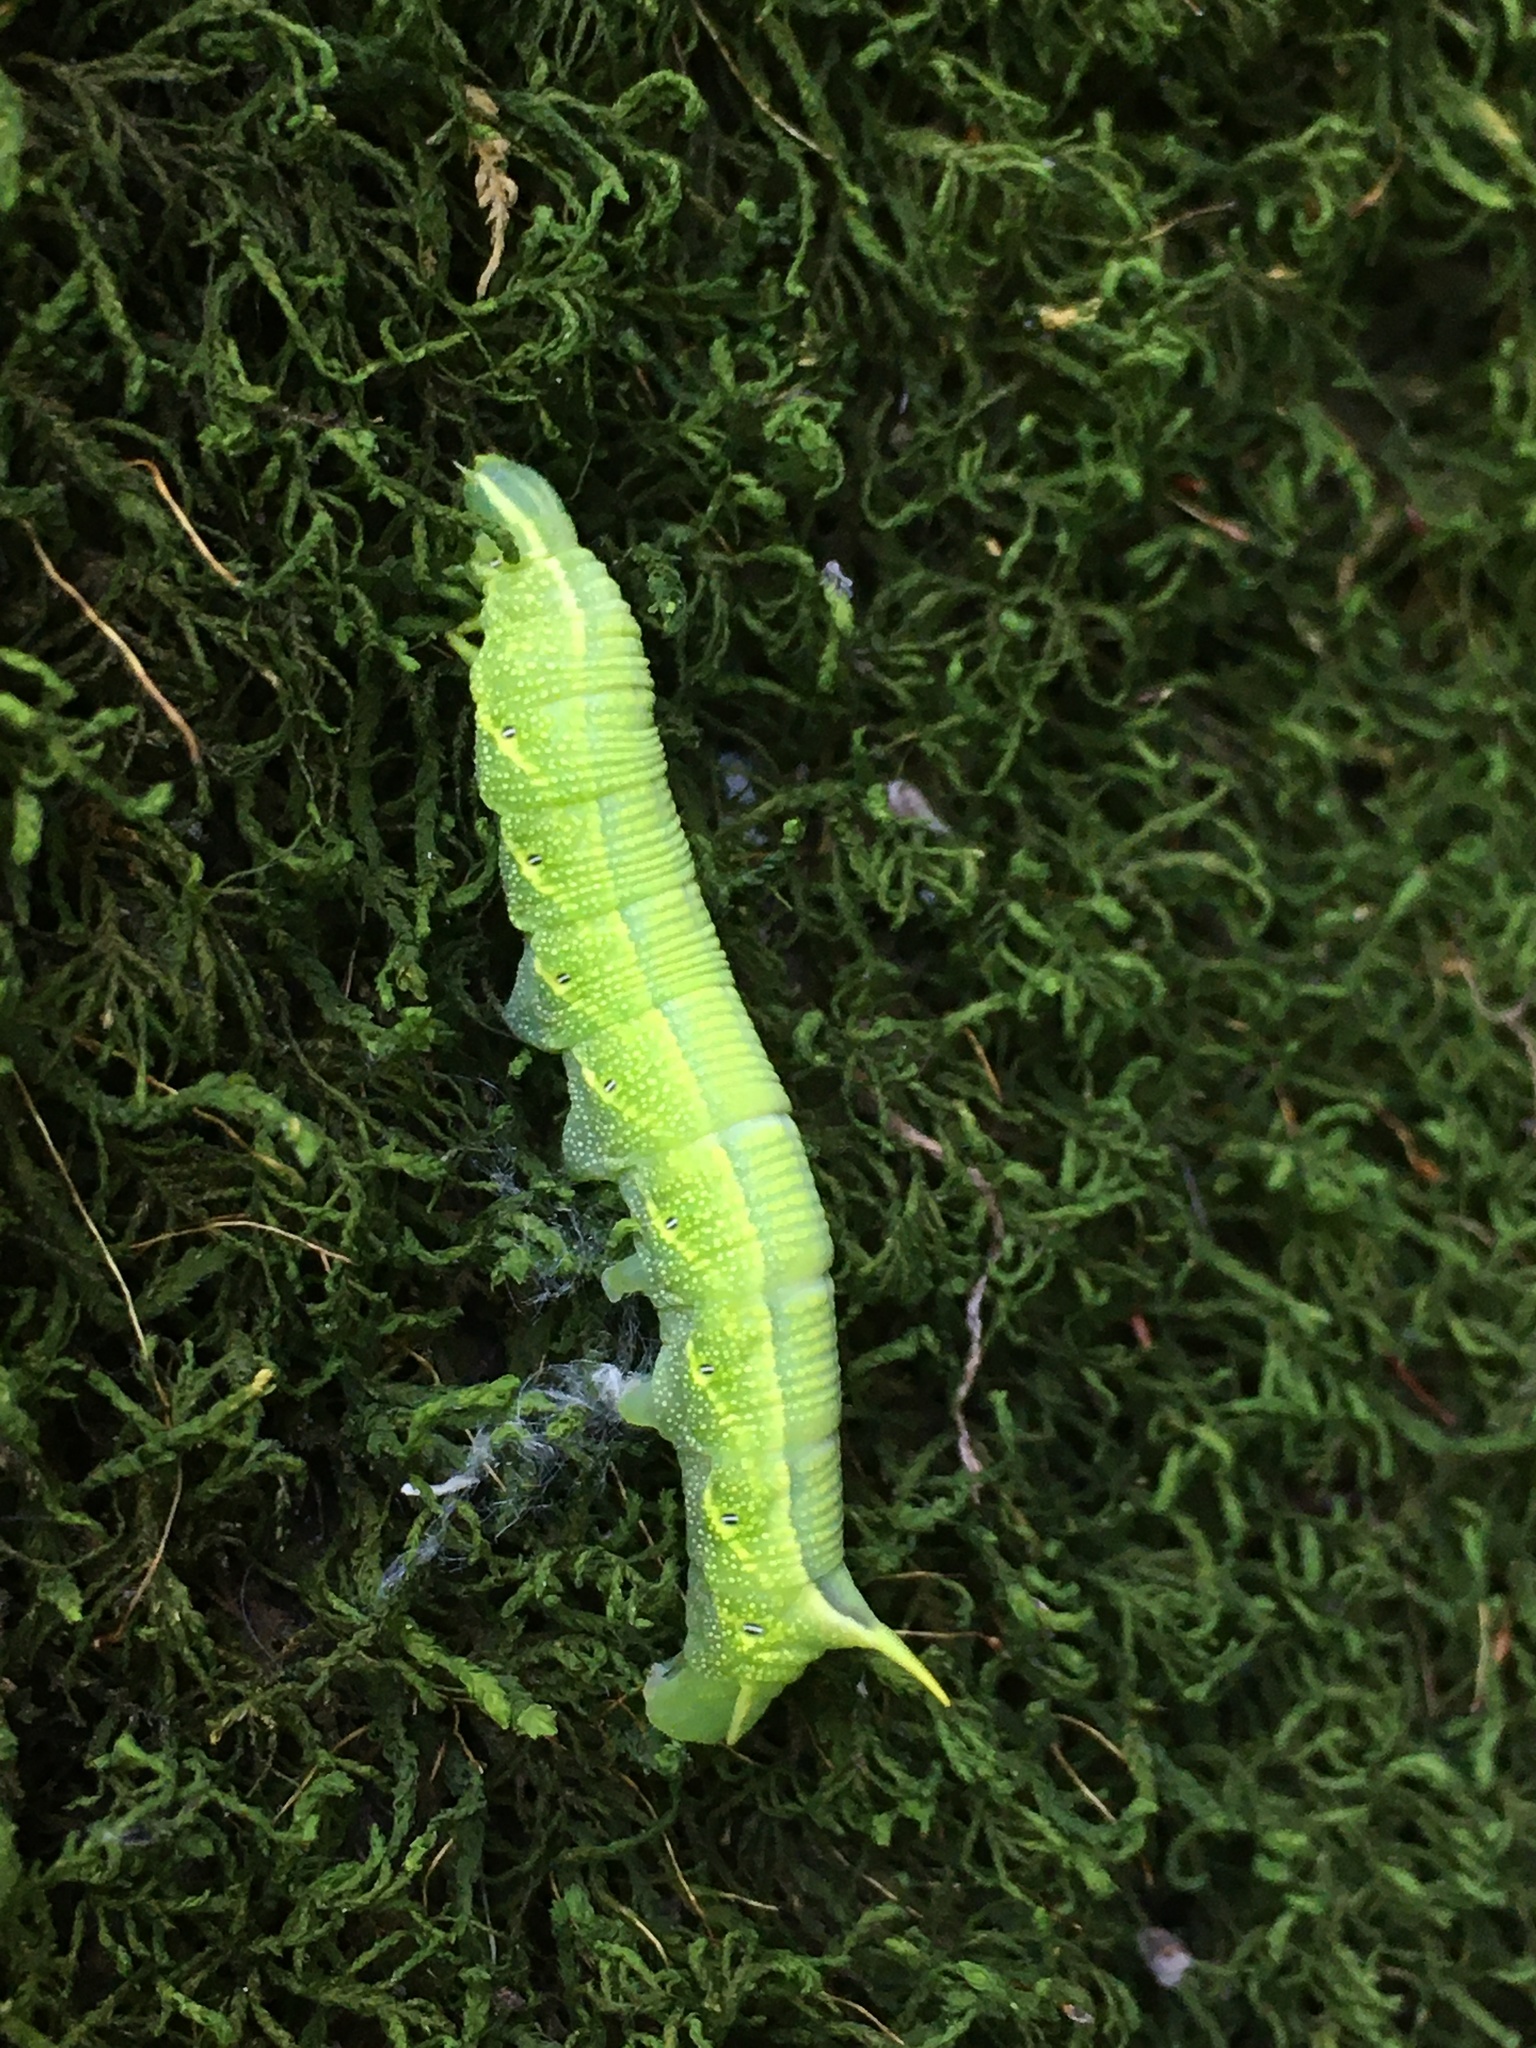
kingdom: Animalia
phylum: Arthropoda
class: Insecta
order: Lepidoptera
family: Sphingidae
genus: Deidamia
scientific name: Deidamia inscriptum
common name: Lettered sphinx
